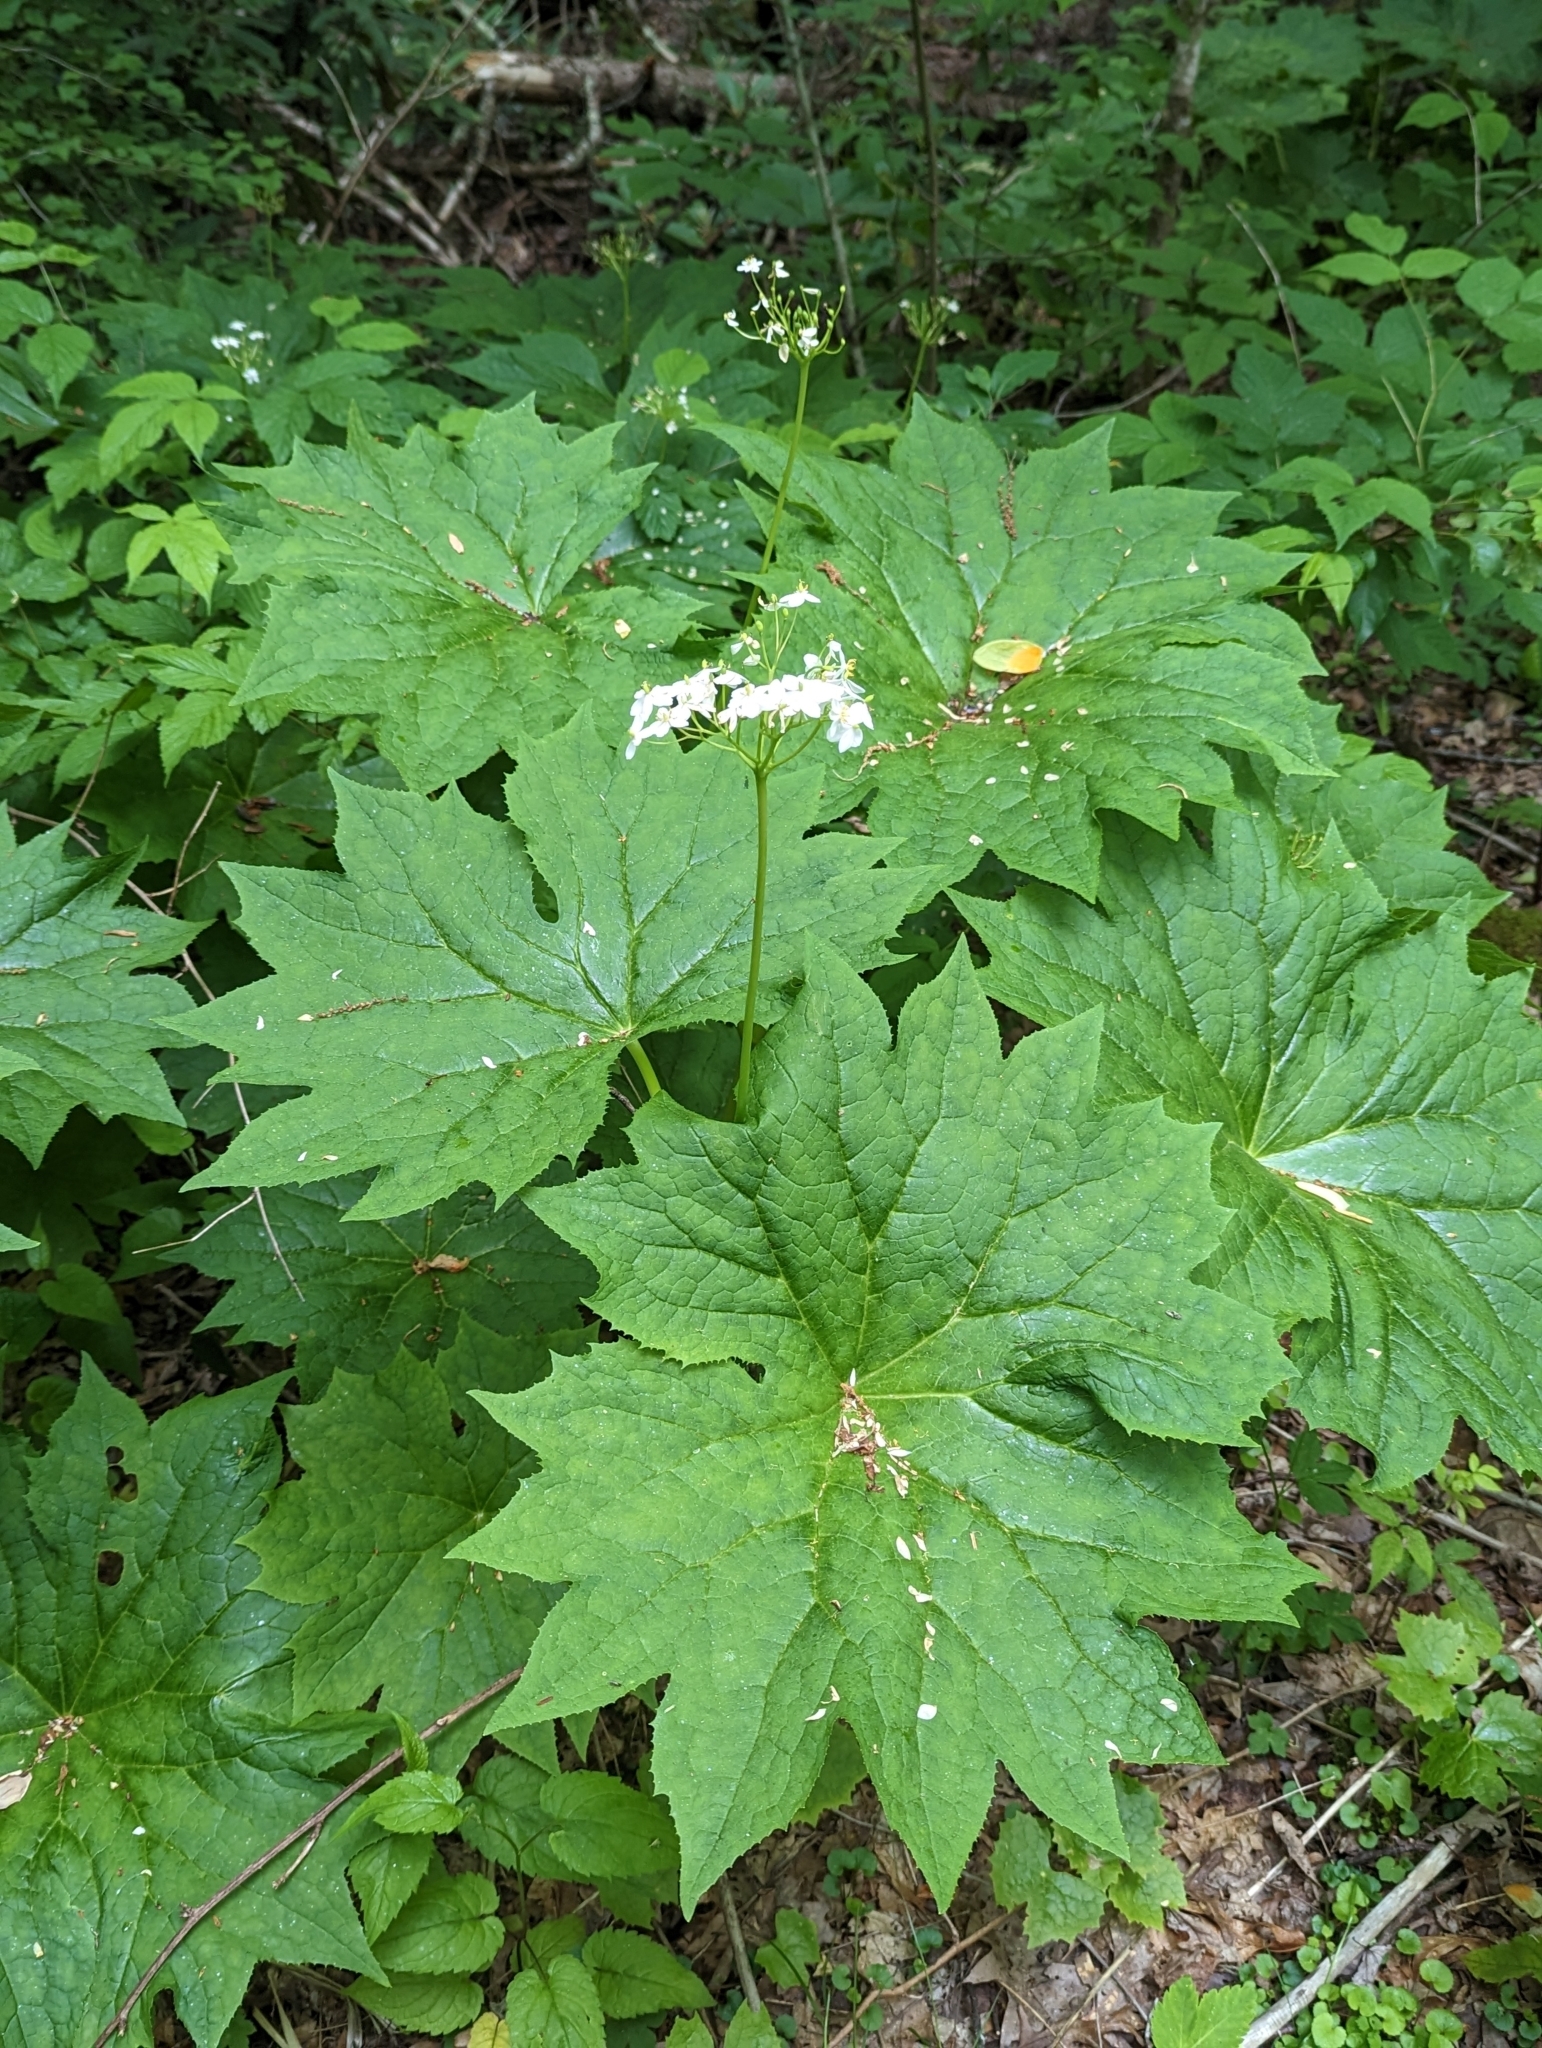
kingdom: Plantae
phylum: Tracheophyta
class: Magnoliopsida
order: Ranunculales
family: Berberidaceae
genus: Diphylleia
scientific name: Diphylleia cymosa
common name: Umbrella-leaf
